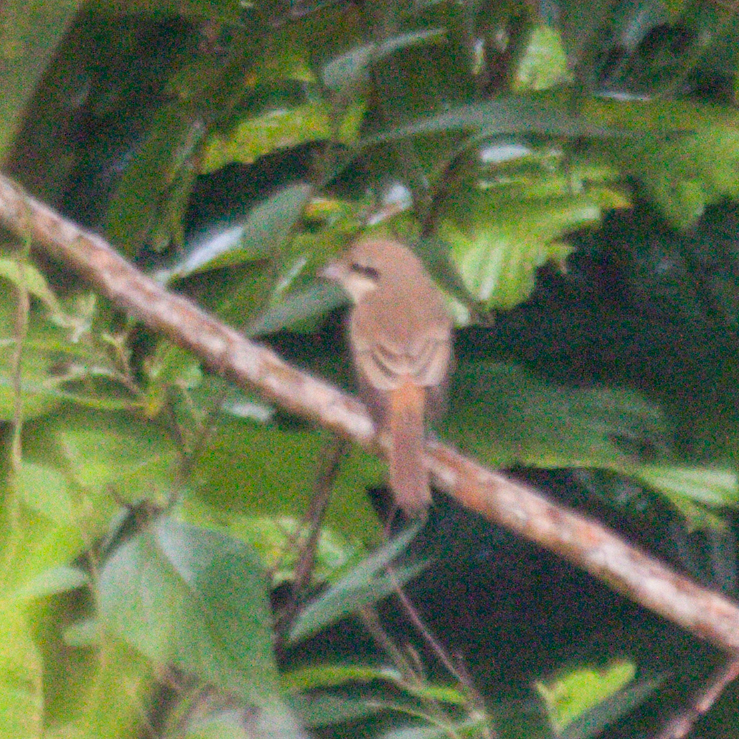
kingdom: Animalia
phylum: Chordata
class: Aves
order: Passeriformes
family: Laniidae
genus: Lanius
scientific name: Lanius cristatus
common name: Brown shrike
